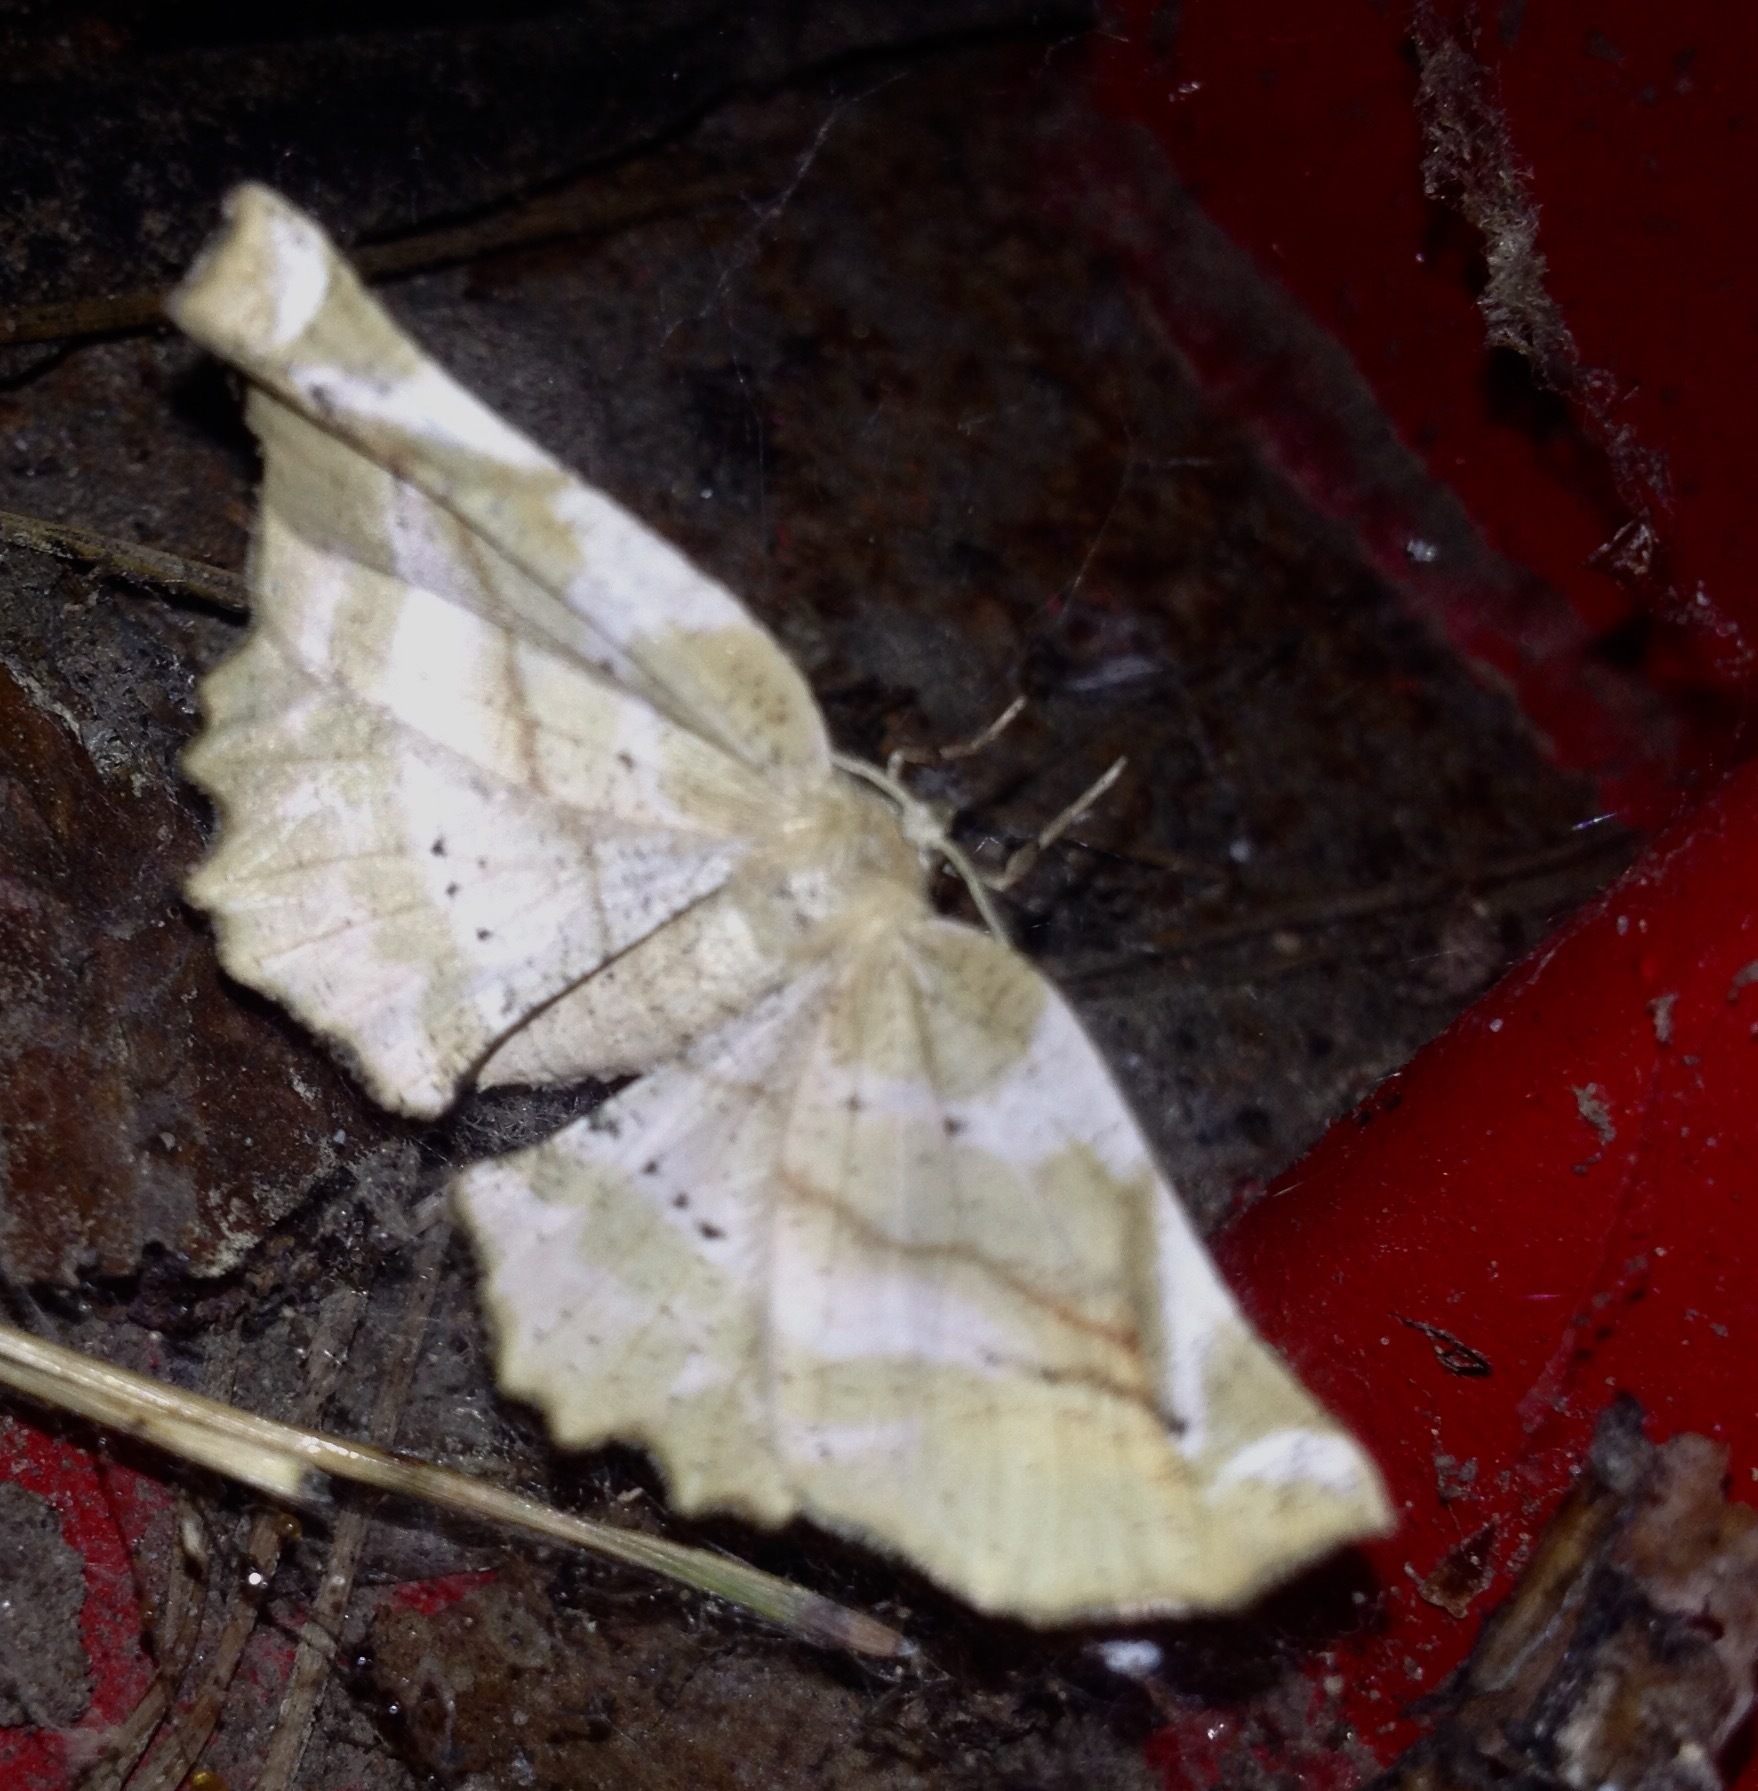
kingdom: Animalia
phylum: Arthropoda
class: Insecta
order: Lepidoptera
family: Geometridae
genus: Apeira
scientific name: Apeira syringaria
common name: Lilac beauty
